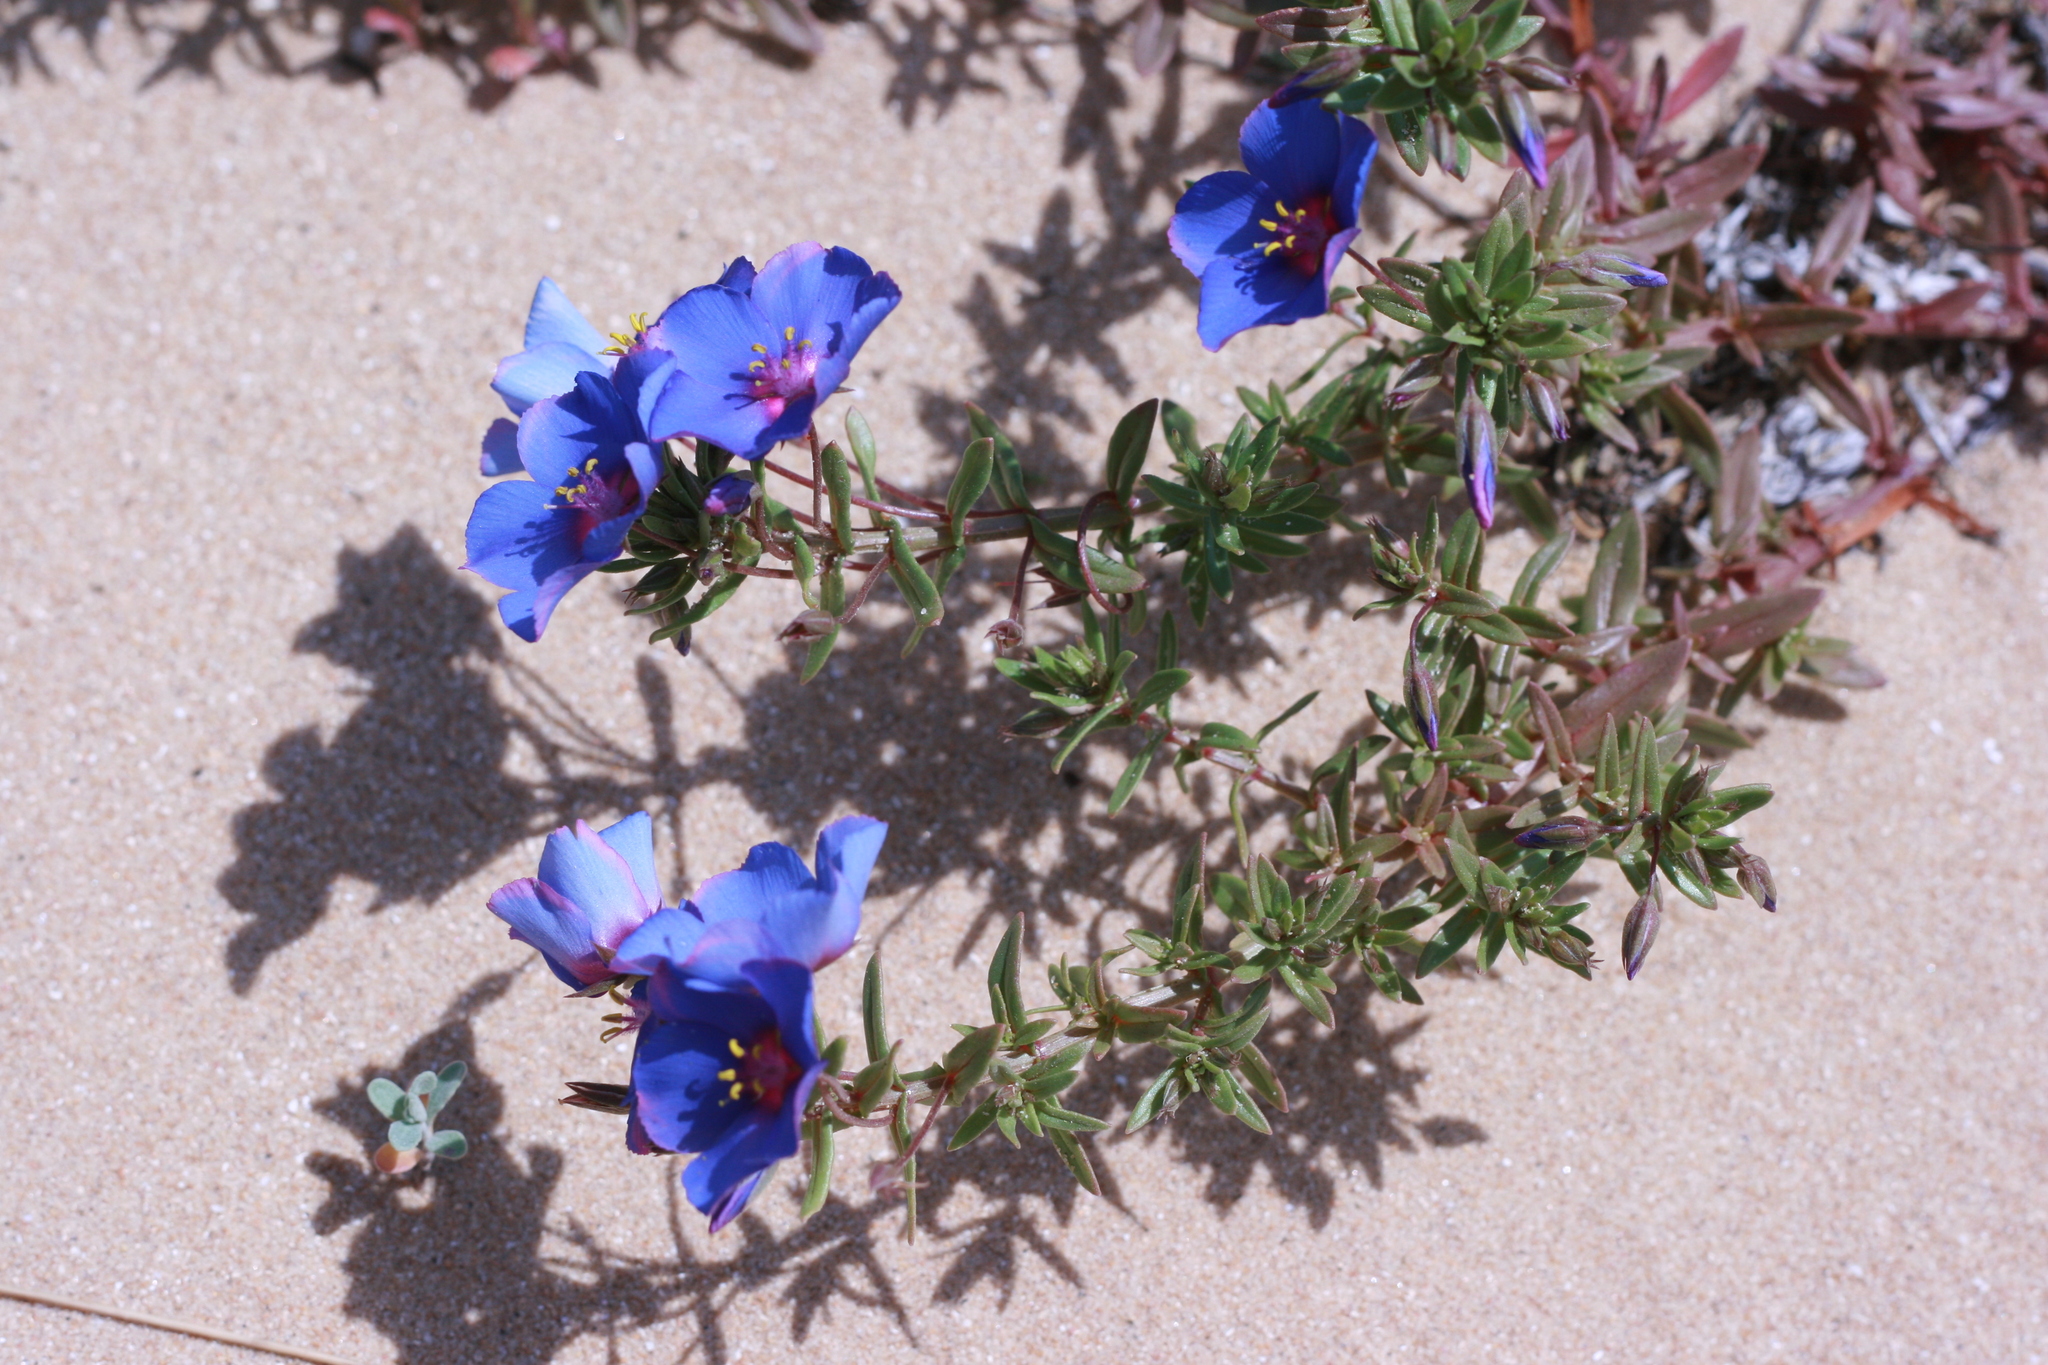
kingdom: Plantae
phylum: Tracheophyta
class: Magnoliopsida
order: Ericales
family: Primulaceae
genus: Lysimachia
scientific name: Lysimachia monelli
